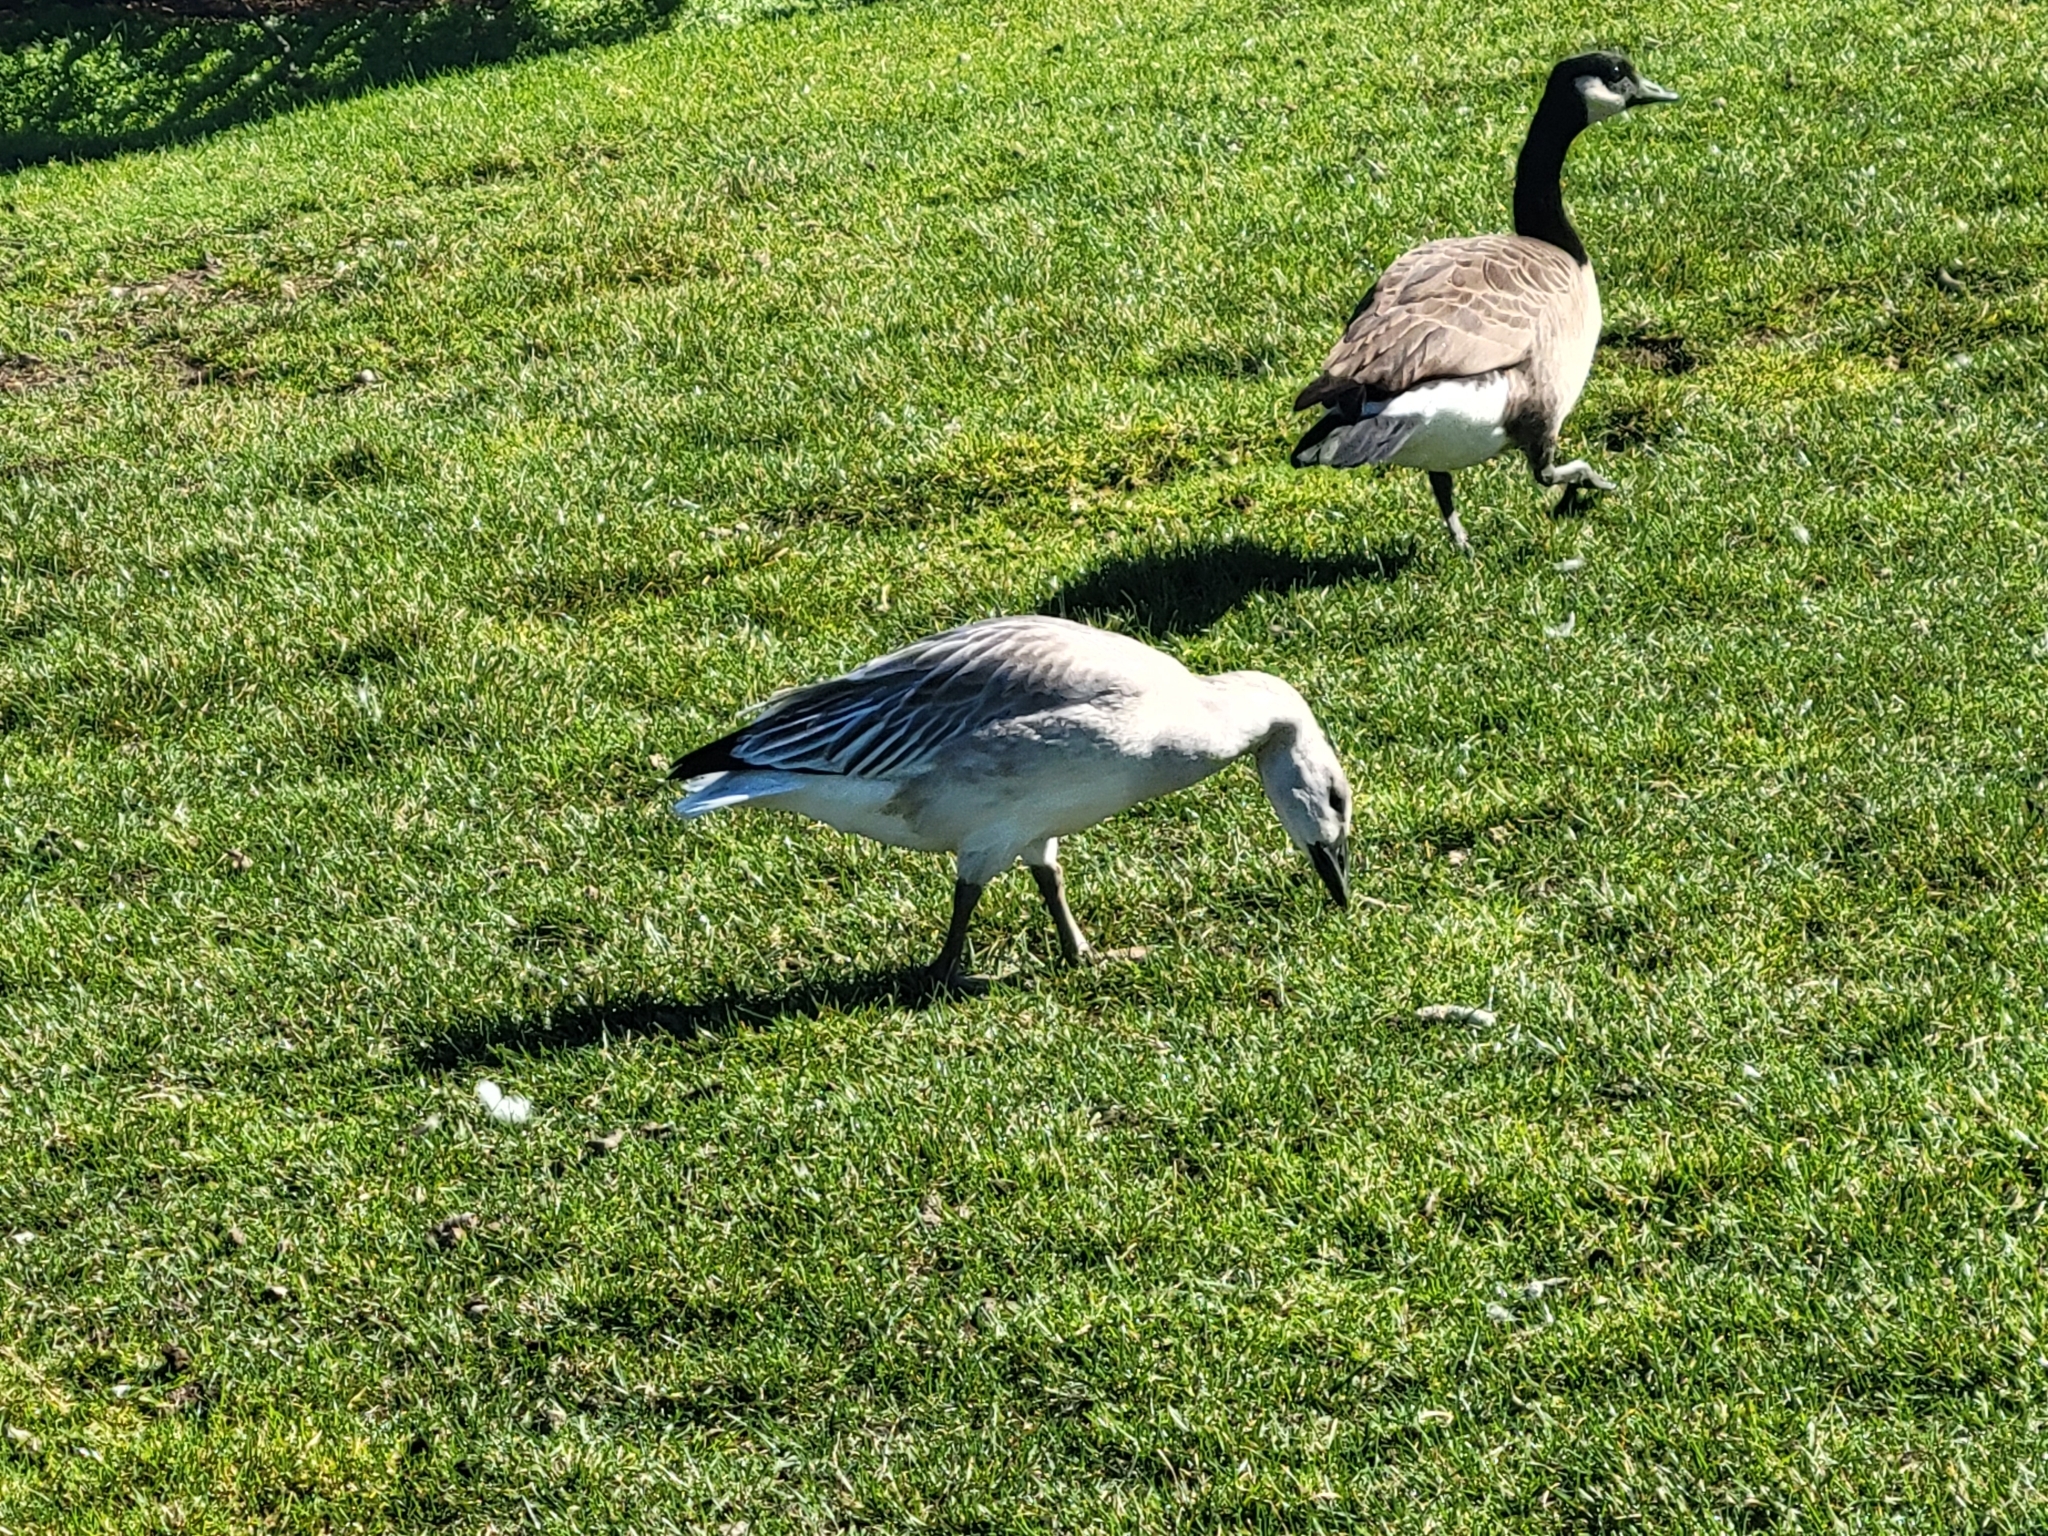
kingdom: Animalia
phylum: Chordata
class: Aves
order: Anseriformes
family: Anatidae
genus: Anser
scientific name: Anser caerulescens
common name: Snow goose
